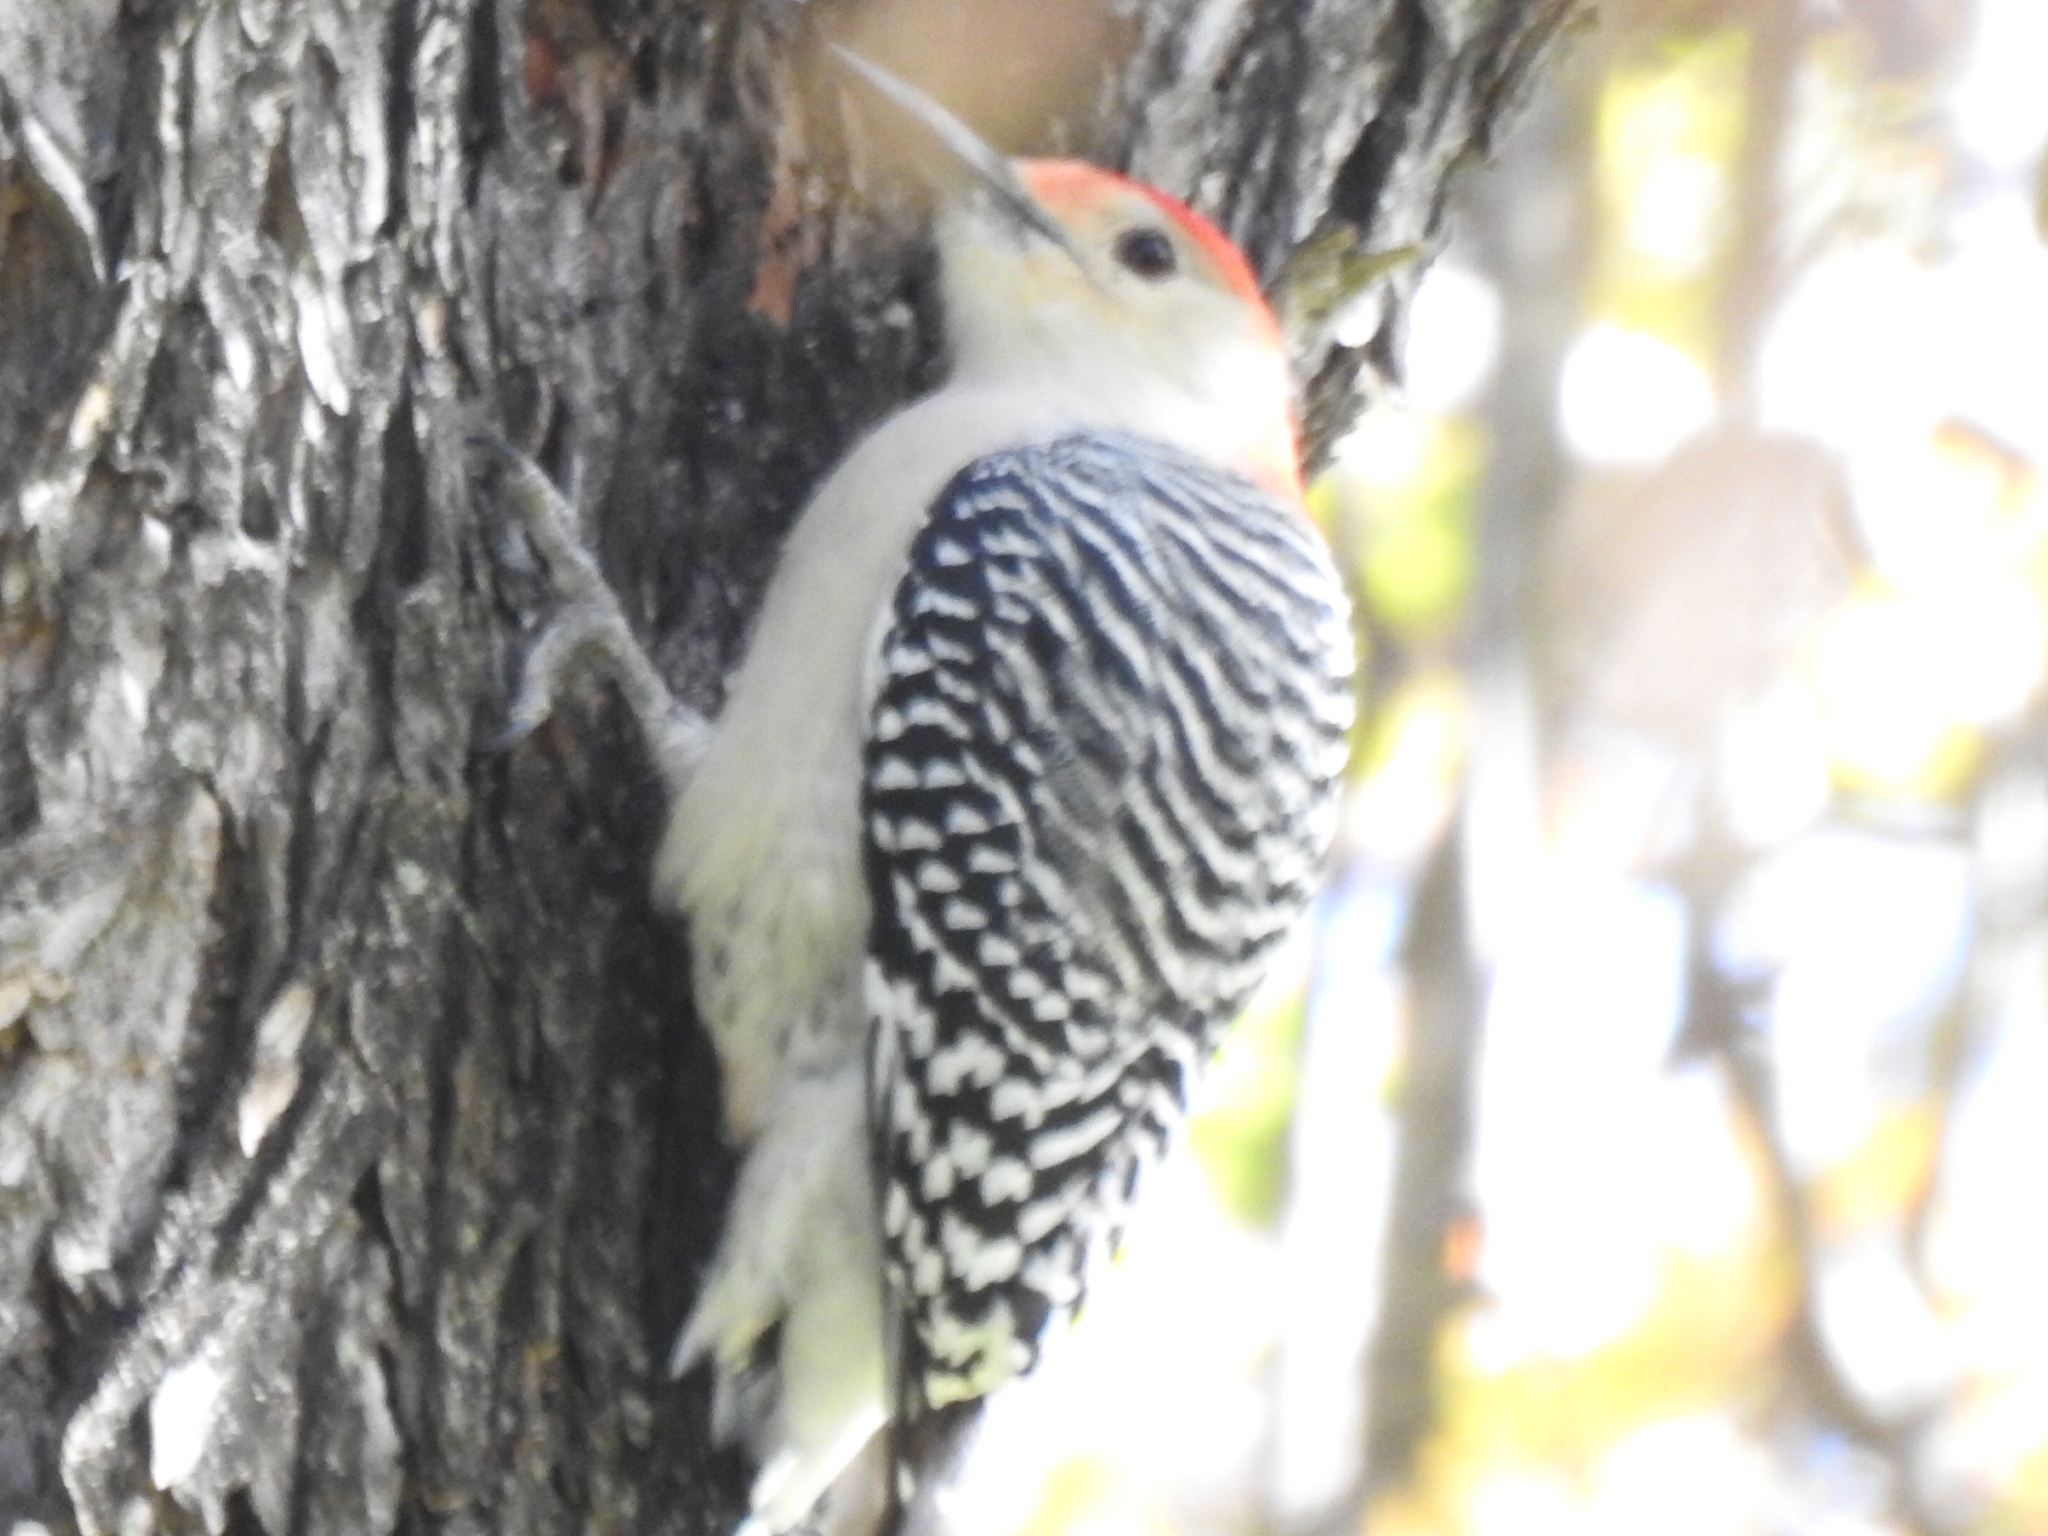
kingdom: Animalia
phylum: Chordata
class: Aves
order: Piciformes
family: Picidae
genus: Melanerpes
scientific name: Melanerpes carolinus
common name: Red-bellied woodpecker
